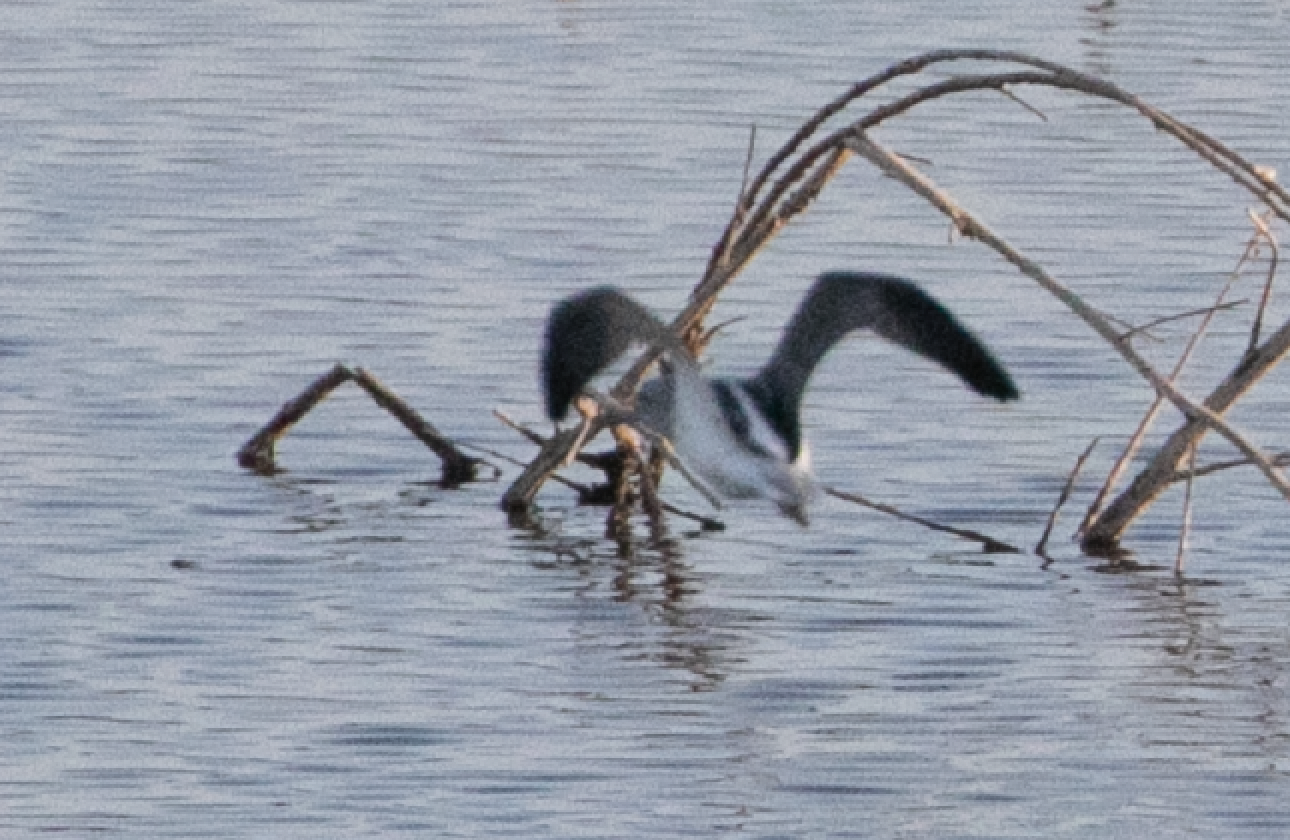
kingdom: Animalia
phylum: Chordata
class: Aves
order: Charadriiformes
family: Scolopacidae
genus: Tringa
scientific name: Tringa nebularia
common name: Common greenshank
